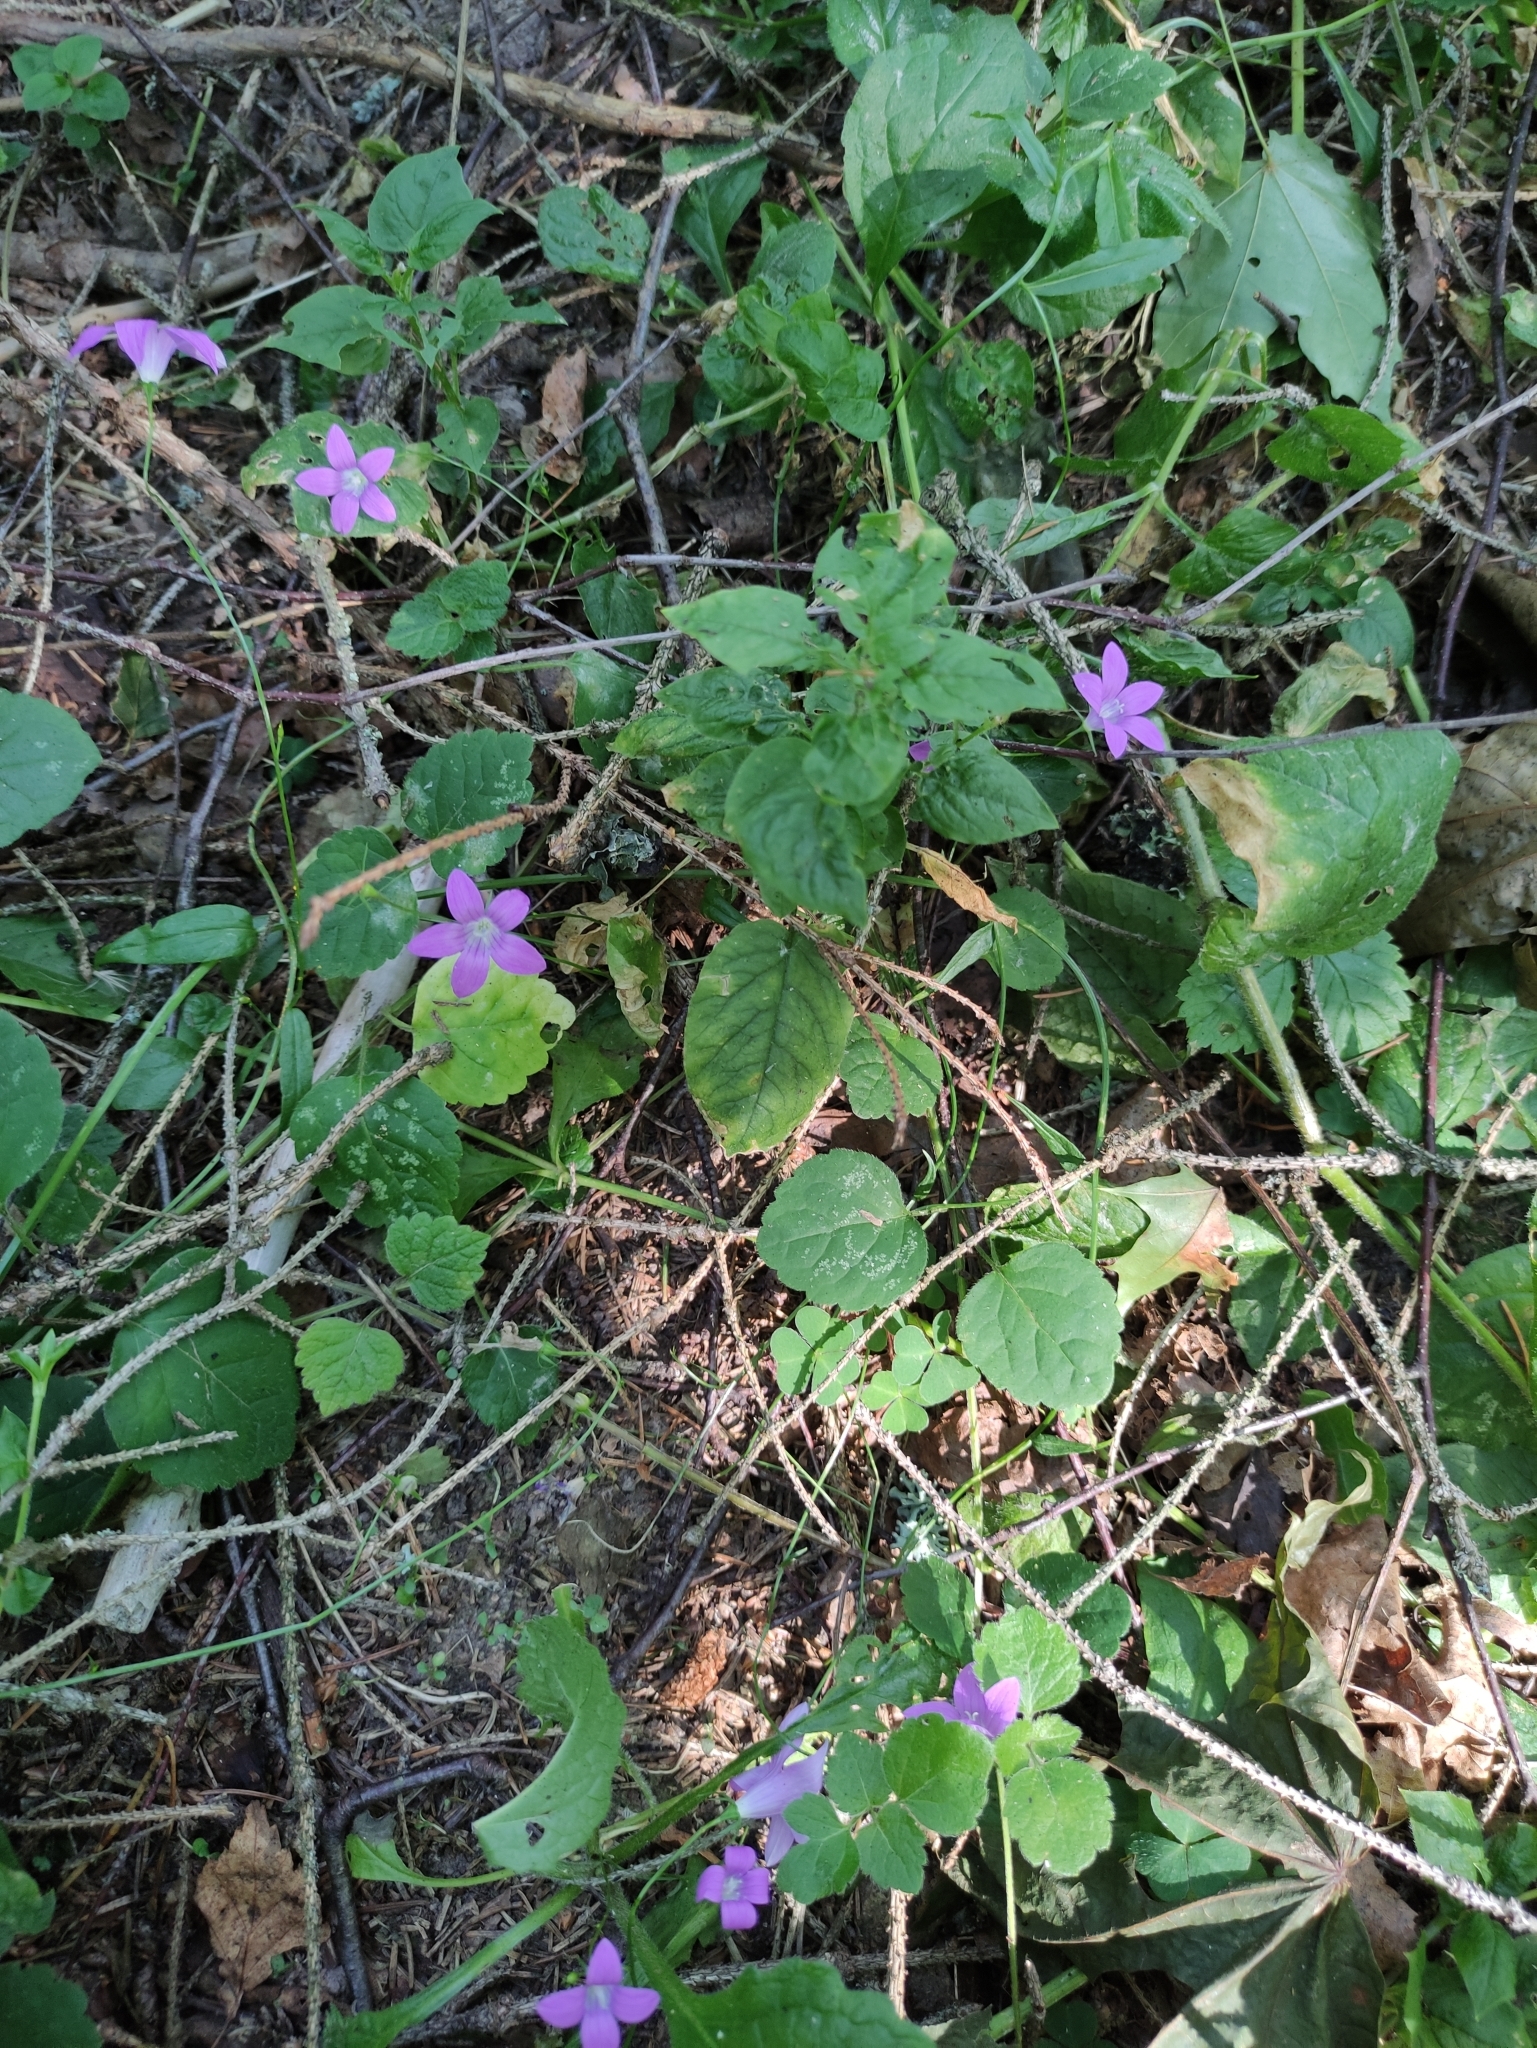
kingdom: Plantae
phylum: Tracheophyta
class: Magnoliopsida
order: Asterales
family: Campanulaceae
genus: Campanula
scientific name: Campanula patula
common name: Spreading bellflower
